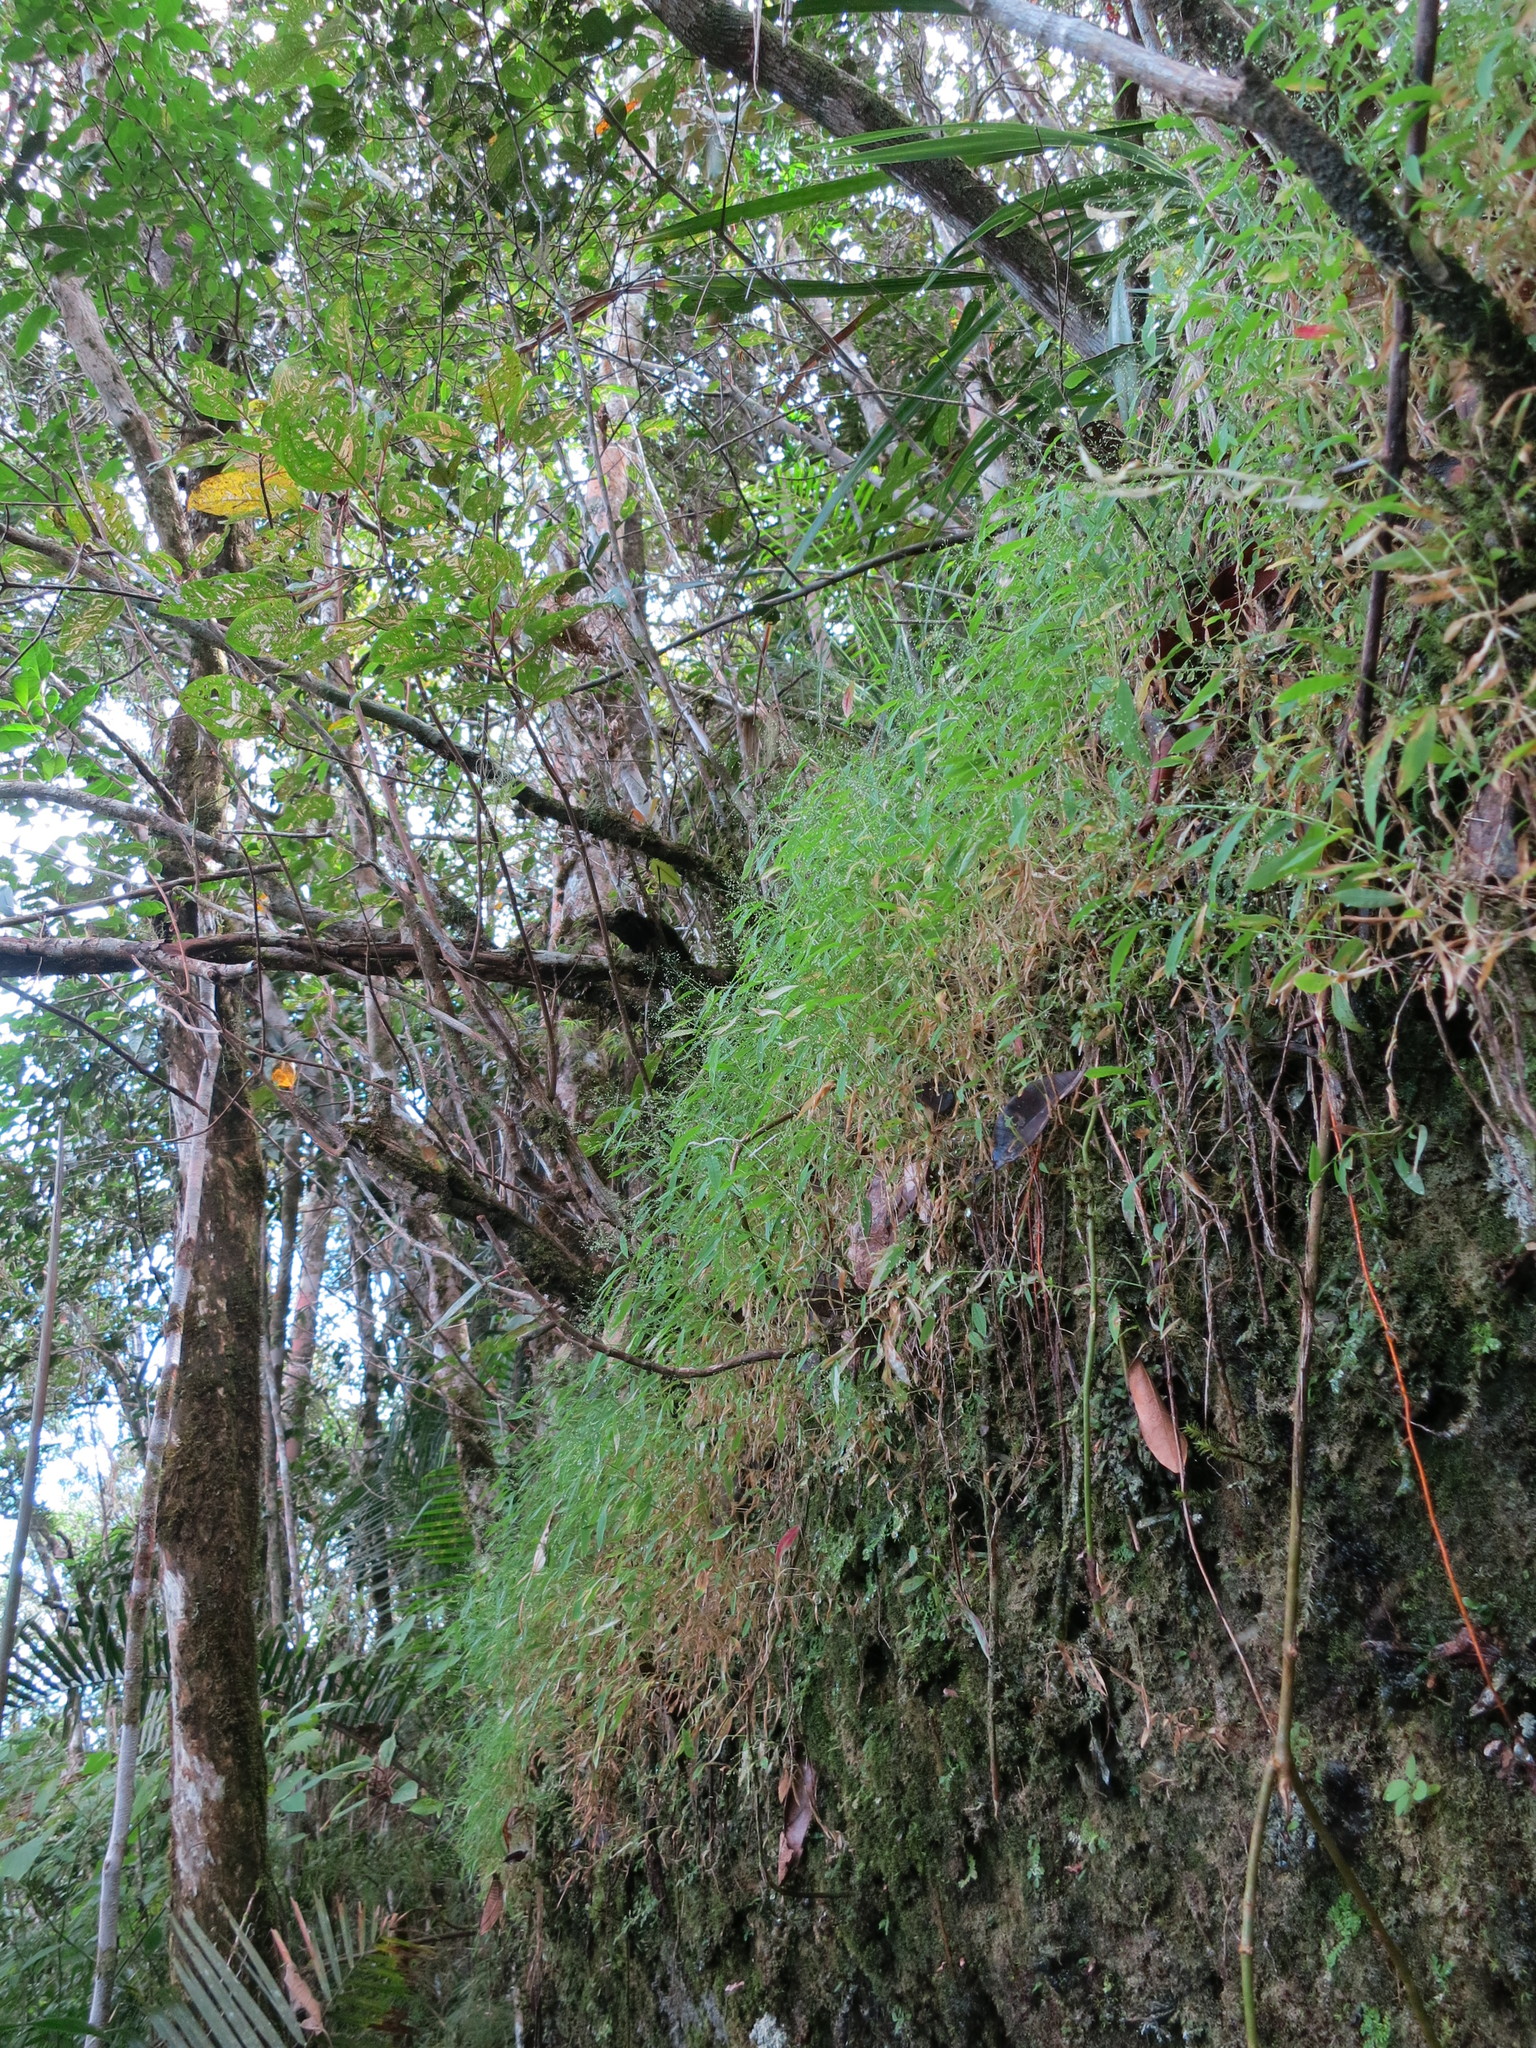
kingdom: Plantae
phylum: Tracheophyta
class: Liliopsida
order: Poales
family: Poaceae
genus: Panicum
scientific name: Panicum vohitrense
